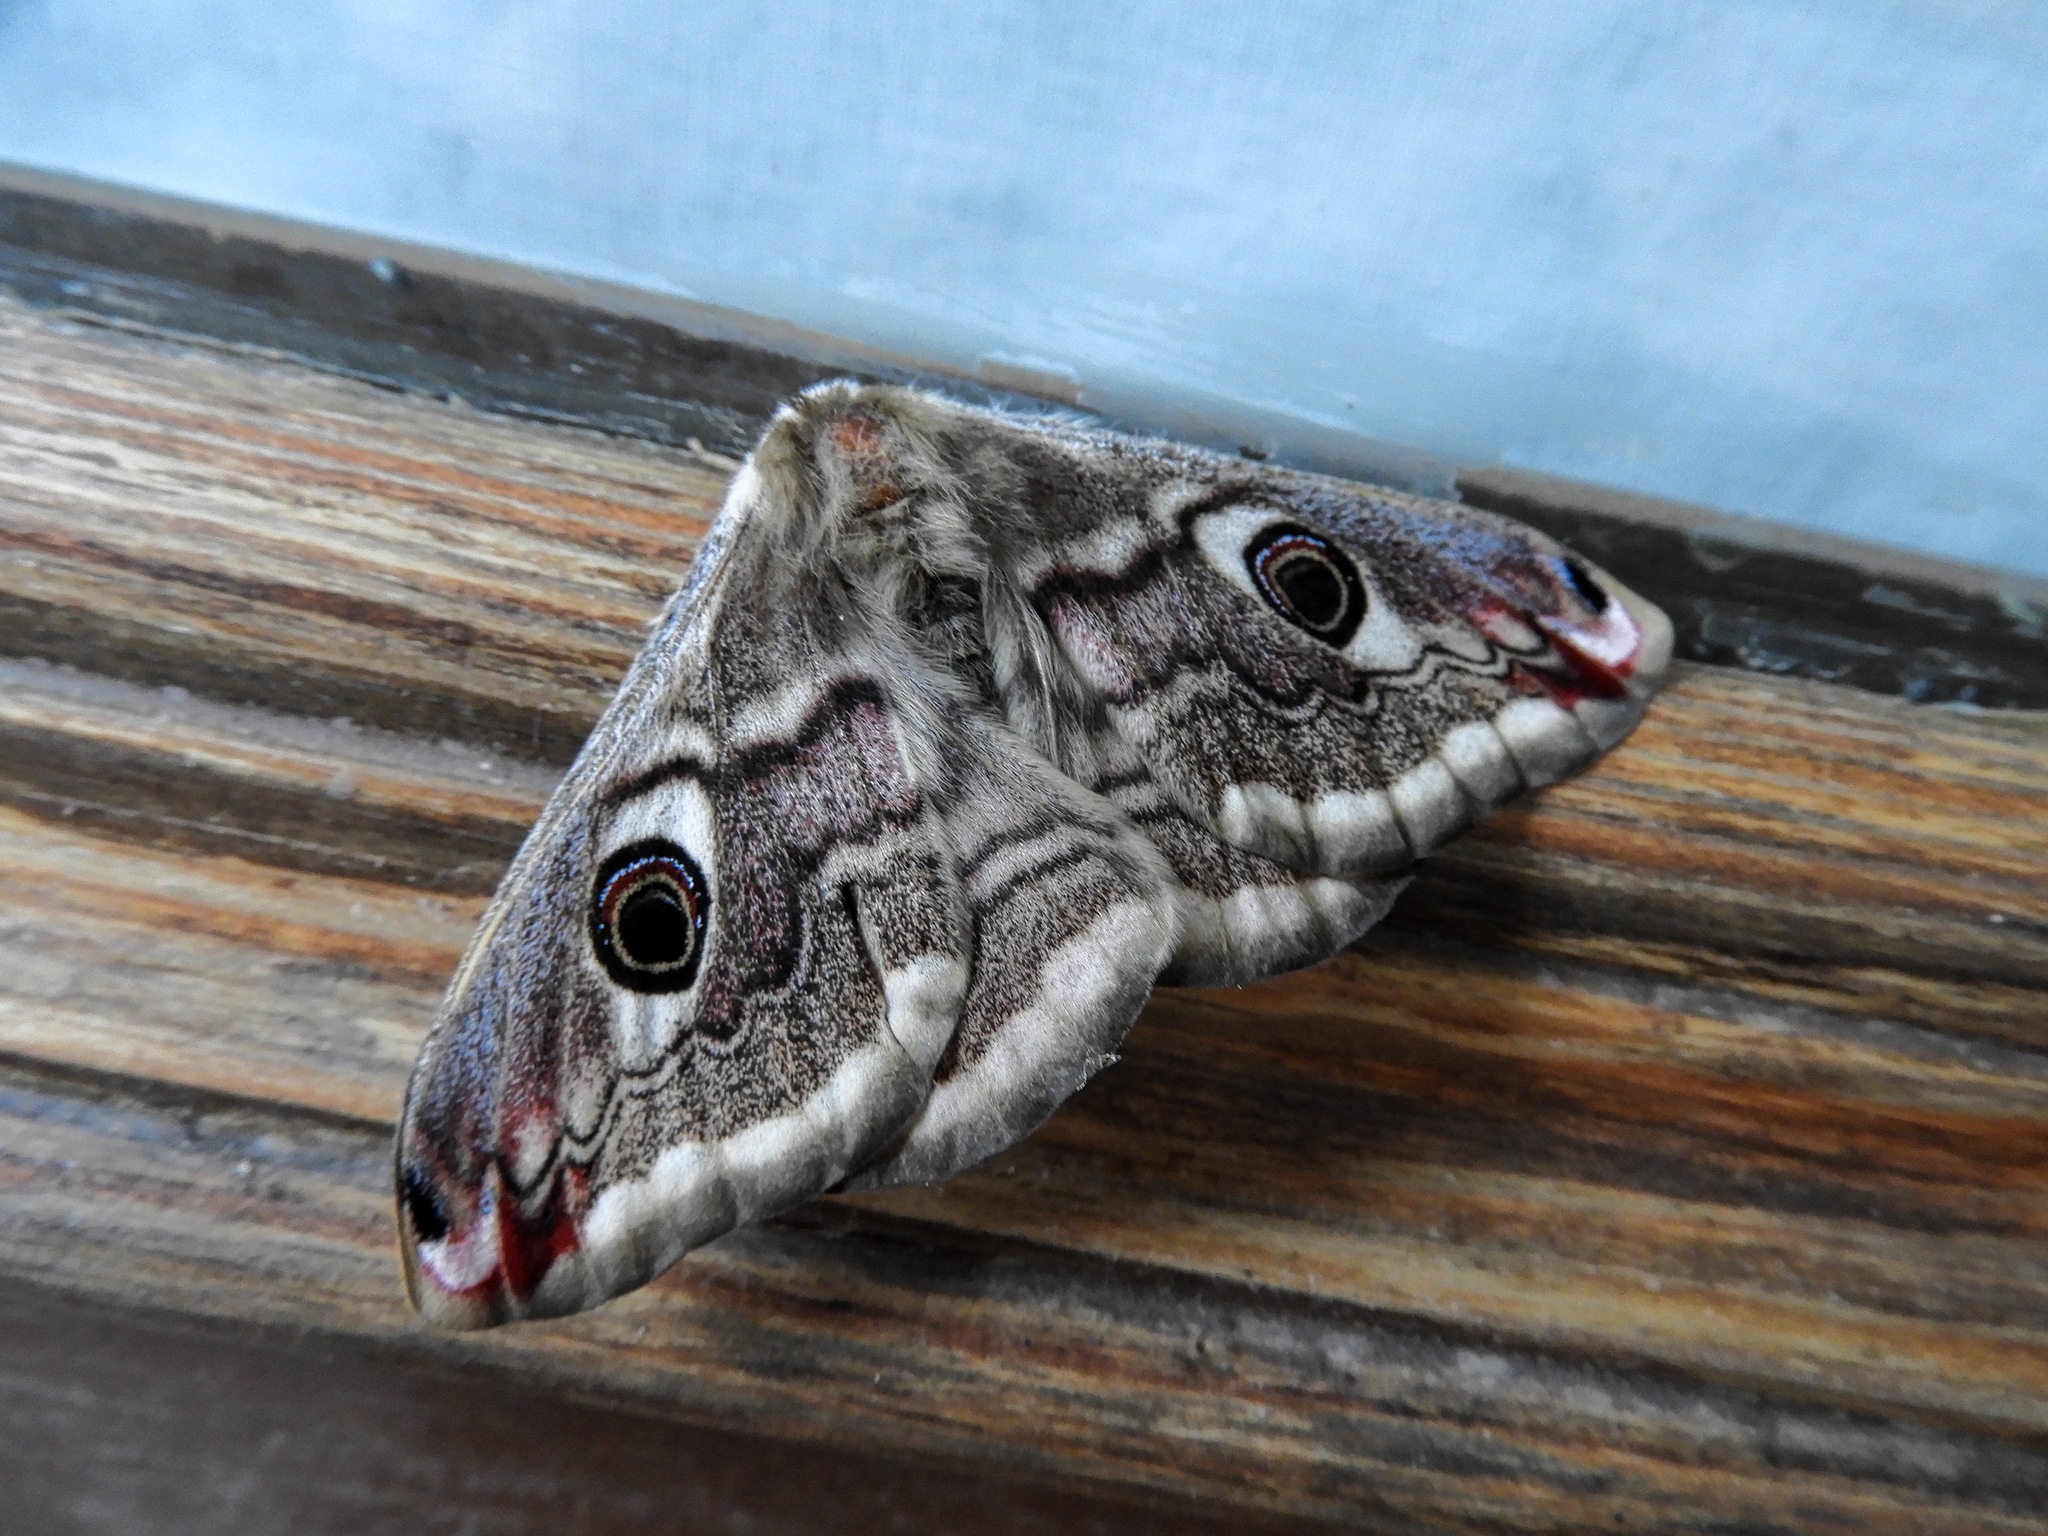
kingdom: Animalia
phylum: Arthropoda
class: Insecta
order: Lepidoptera
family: Saturniidae
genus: Saturnia
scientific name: Saturnia pavoniella
